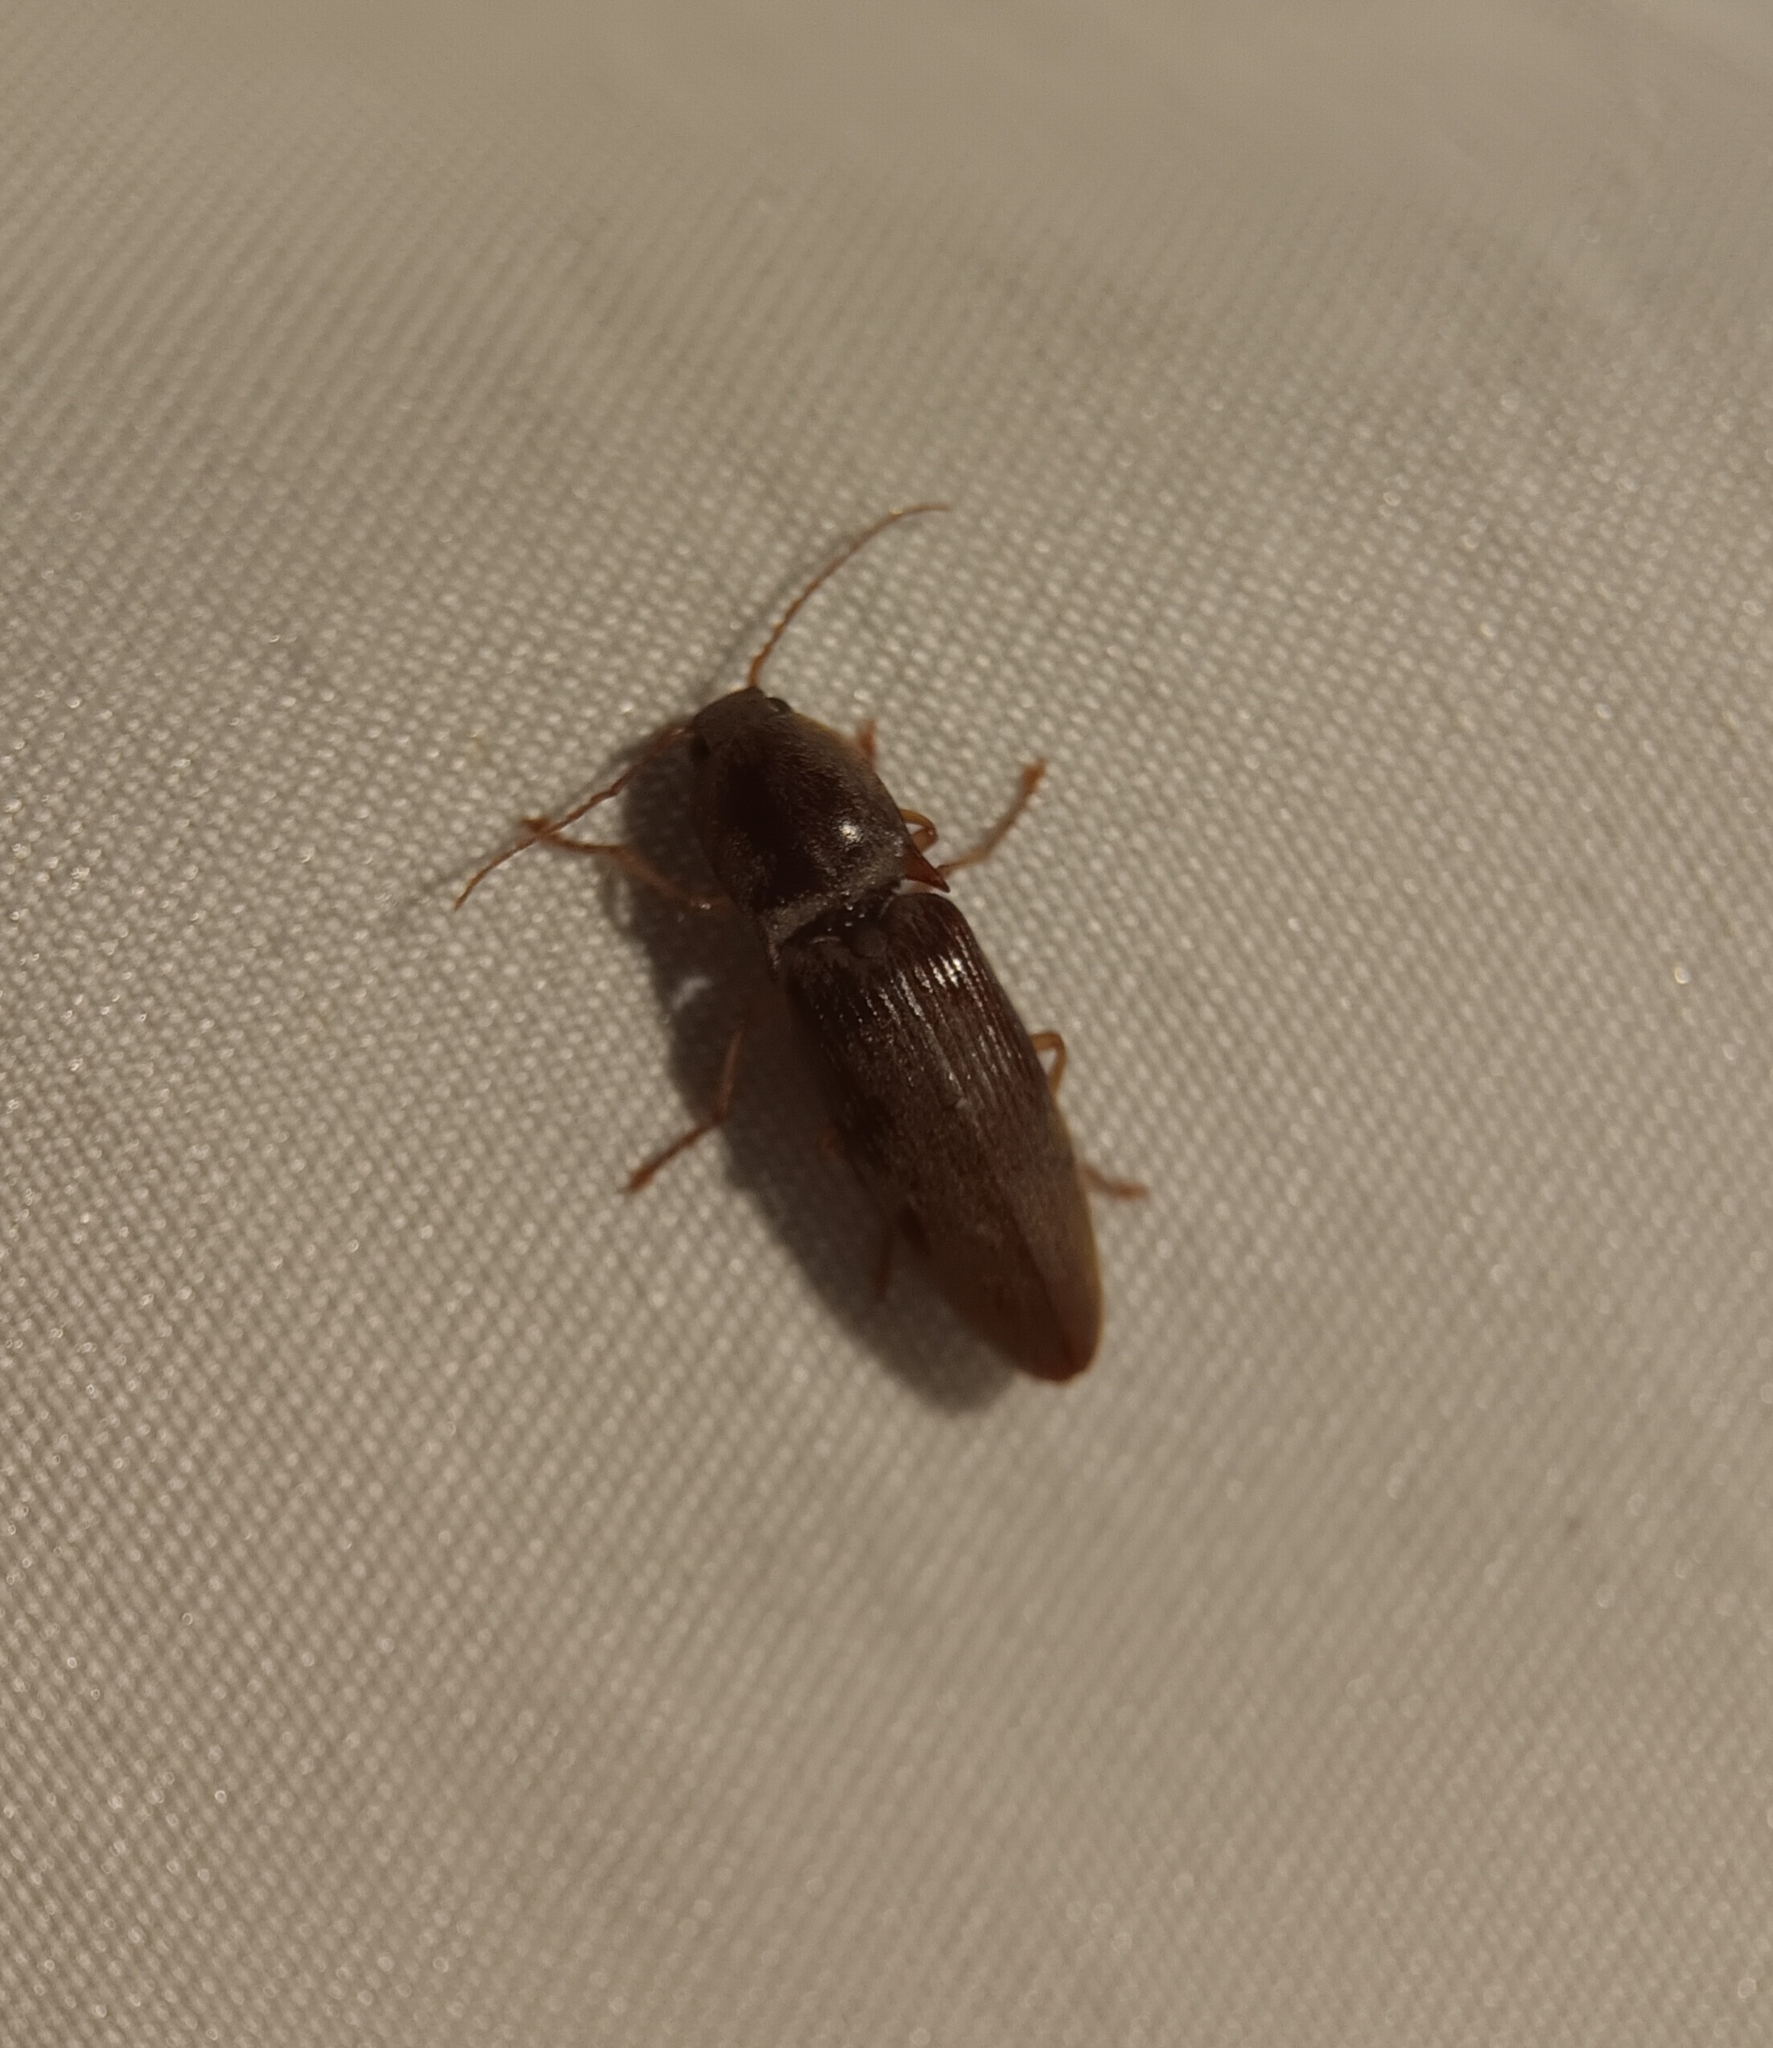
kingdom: Animalia
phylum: Arthropoda
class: Insecta
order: Coleoptera
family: Elateridae
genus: Monocrepidius
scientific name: Monocrepidius lividus
